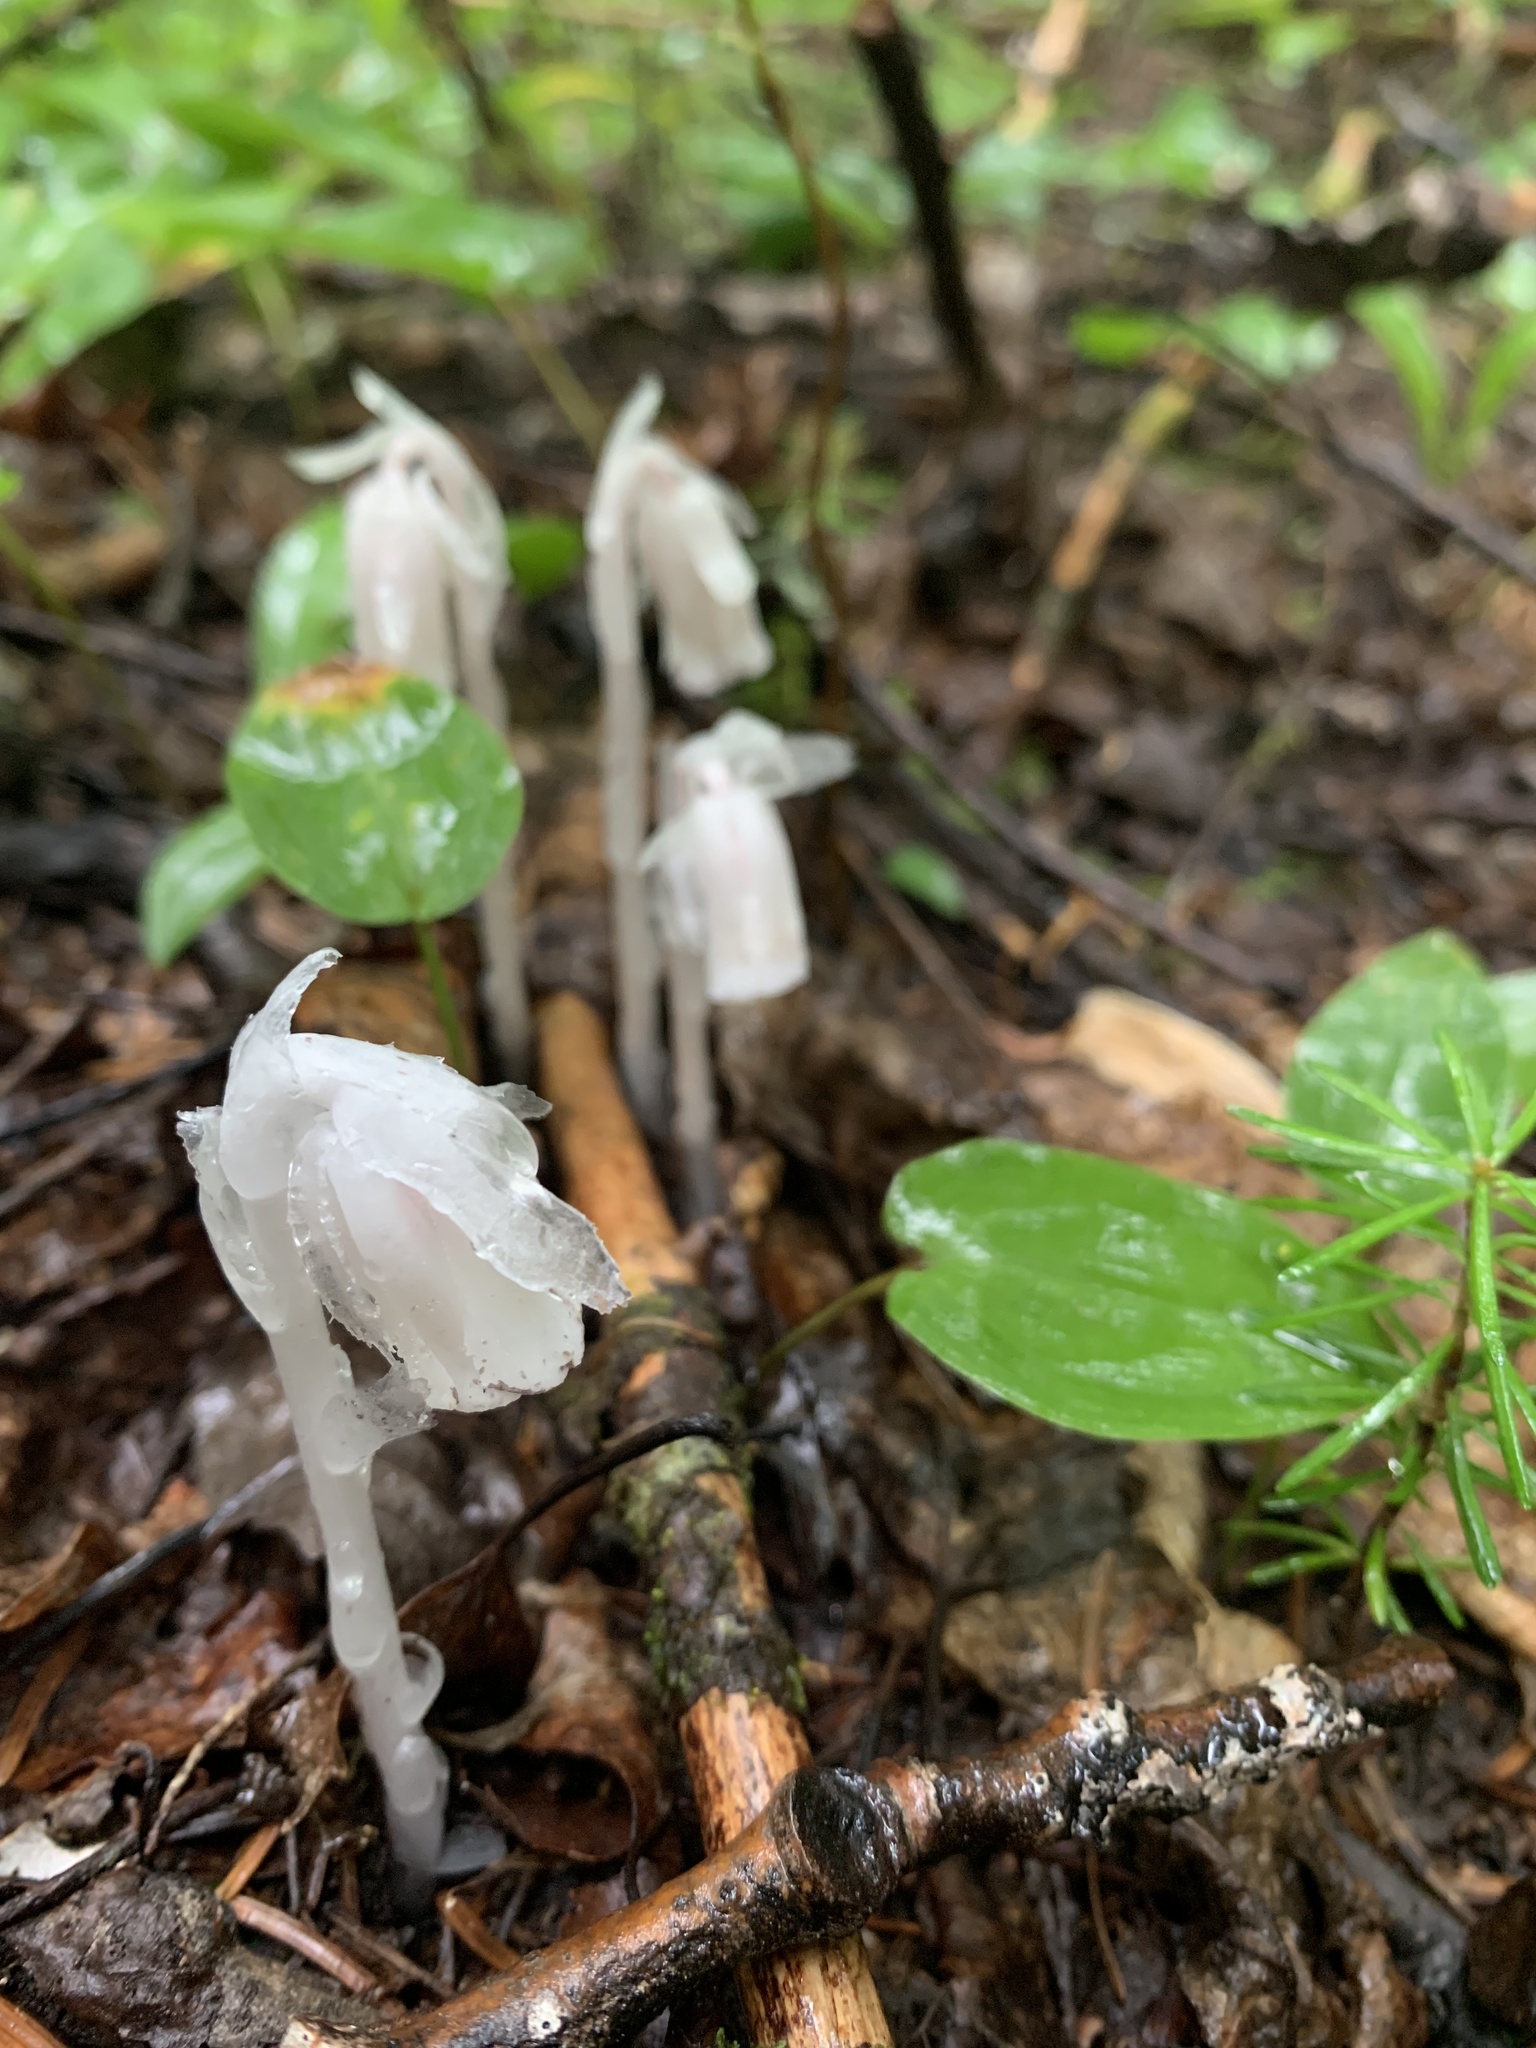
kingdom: Plantae
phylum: Tracheophyta
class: Magnoliopsida
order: Ericales
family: Ericaceae
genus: Monotropa
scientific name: Monotropa uniflora
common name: Convulsion root
